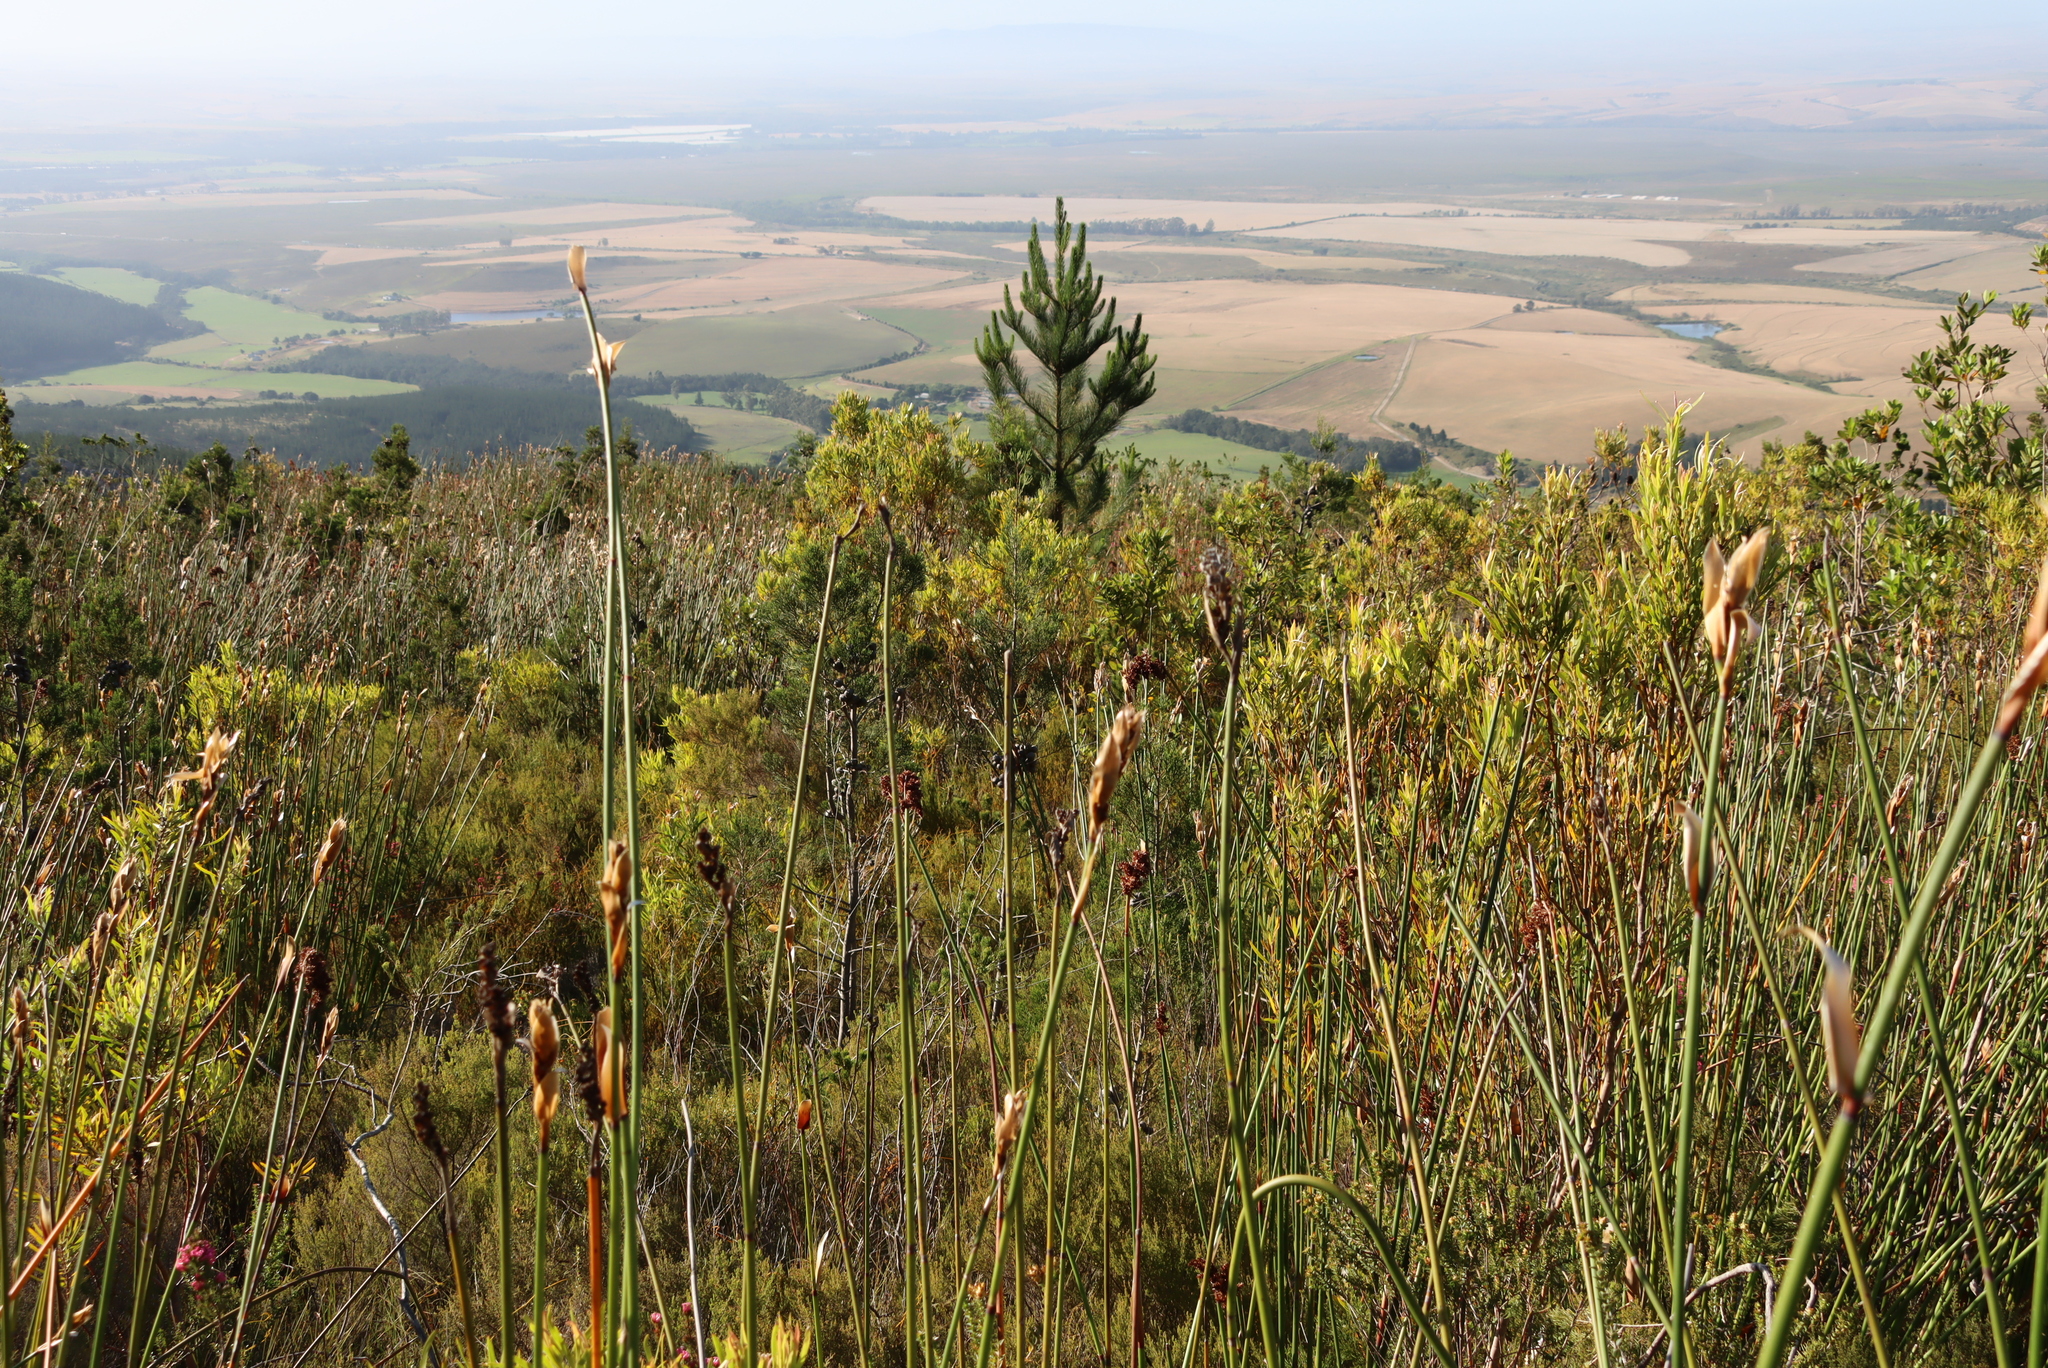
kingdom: Plantae
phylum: Tracheophyta
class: Pinopsida
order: Pinales
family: Pinaceae
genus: Pinus
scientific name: Pinus radiata
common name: Monterey pine
